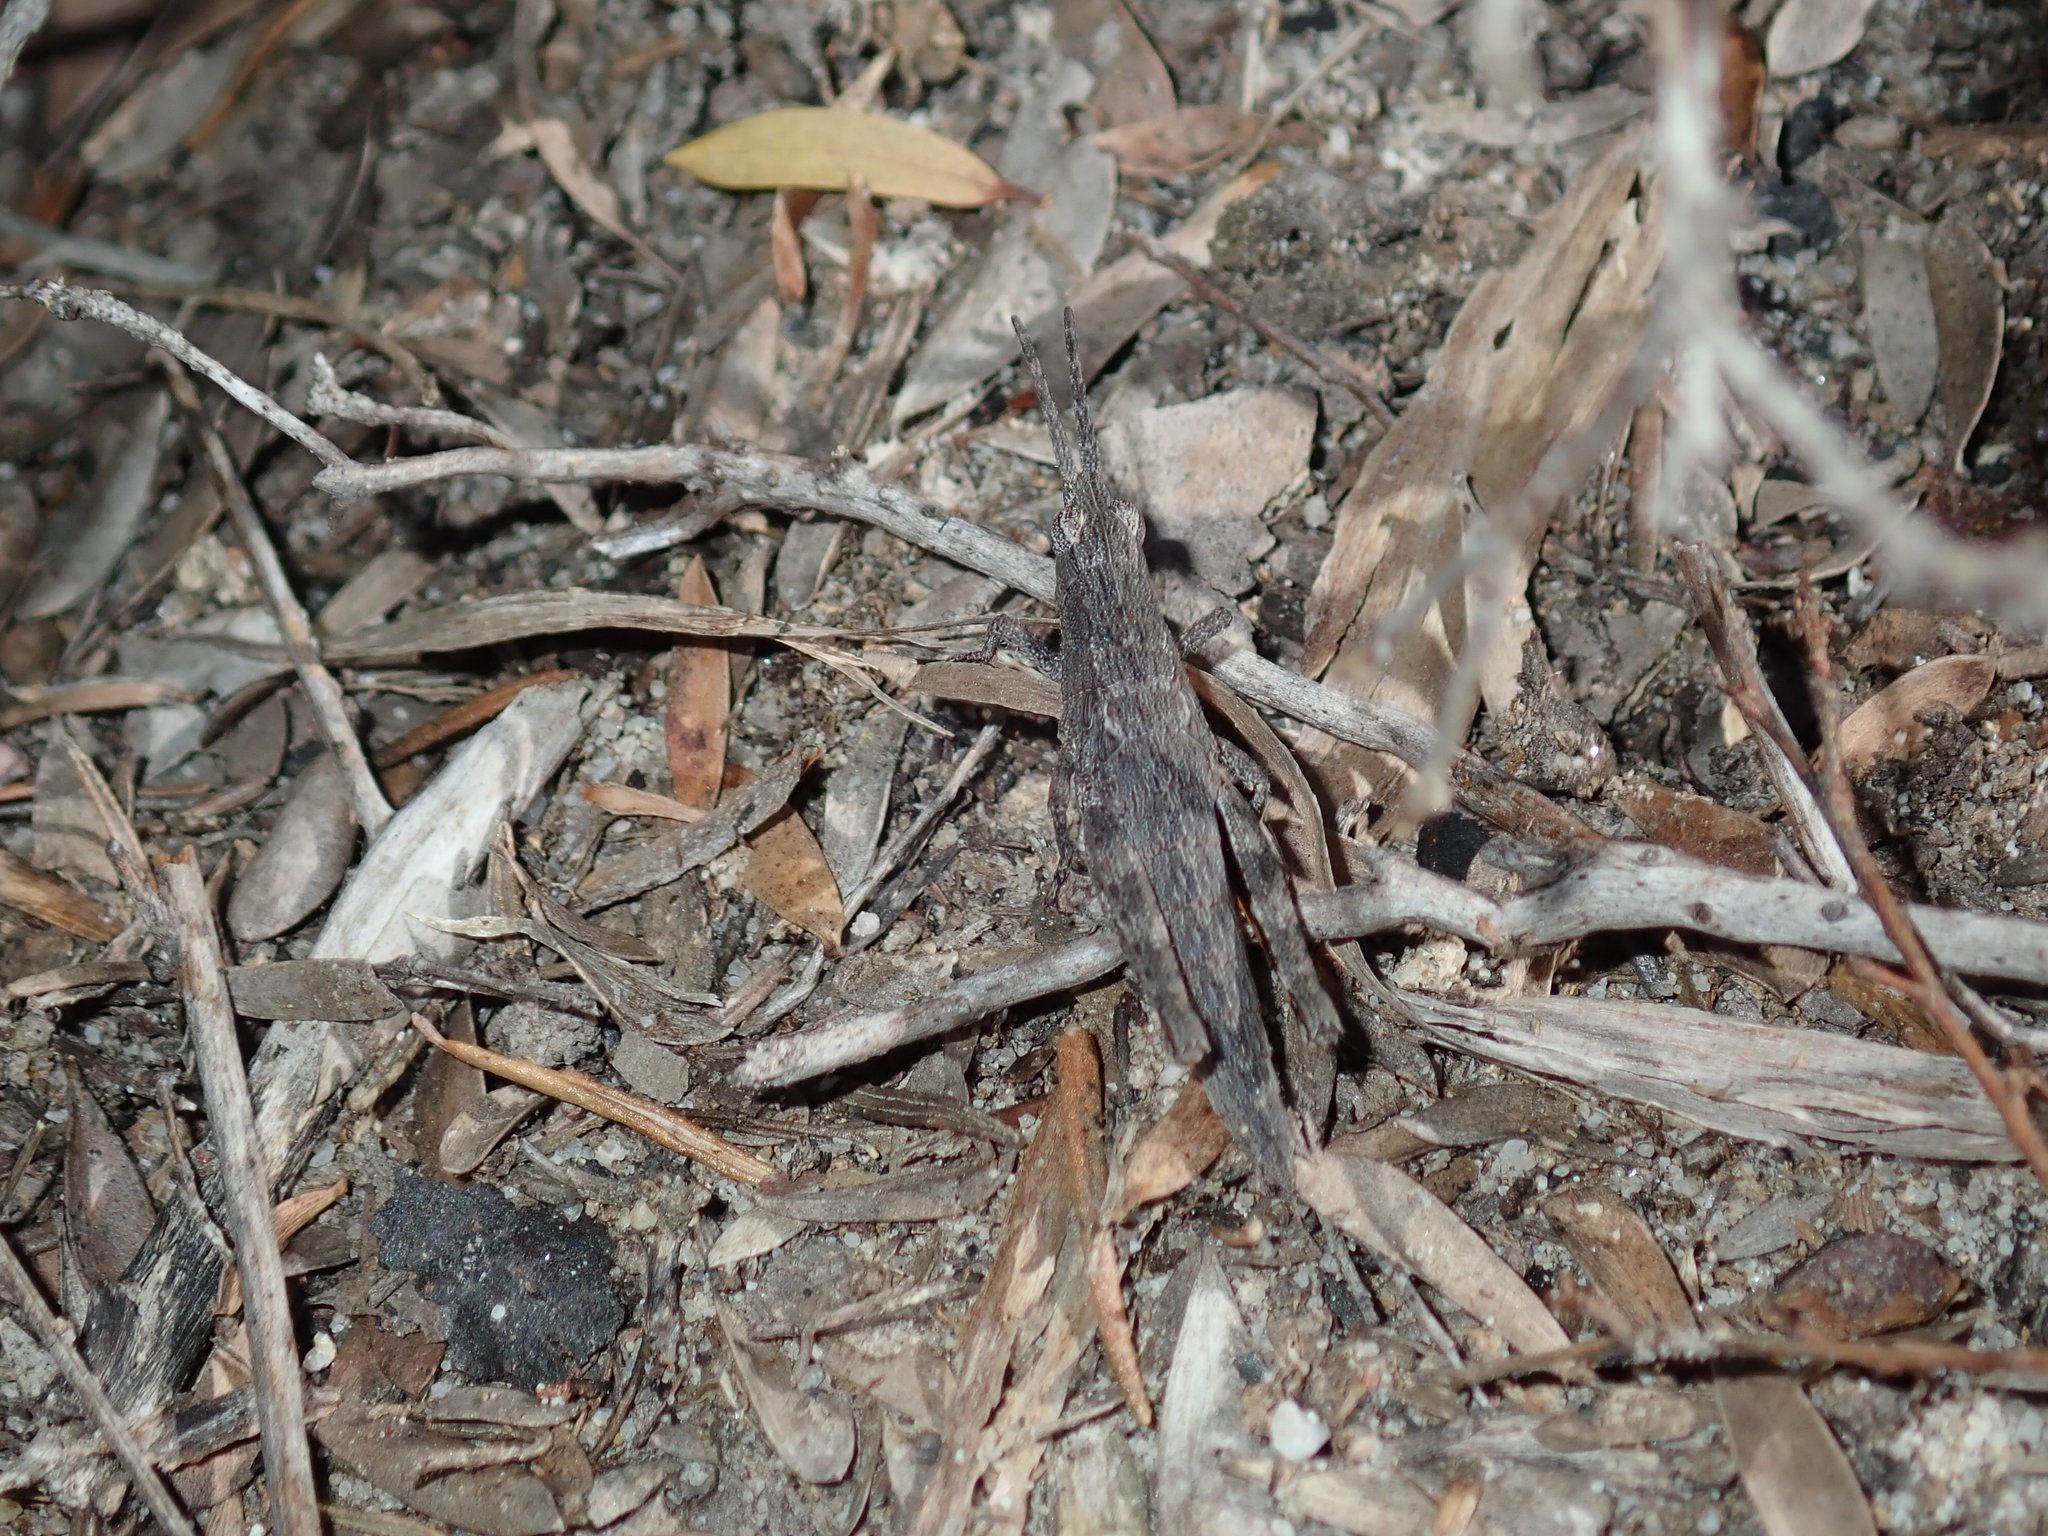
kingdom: Animalia
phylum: Arthropoda
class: Insecta
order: Orthoptera
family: Acrididae
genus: Coryphistes
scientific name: Coryphistes ruricola
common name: Bark-mimicking grasshopper
